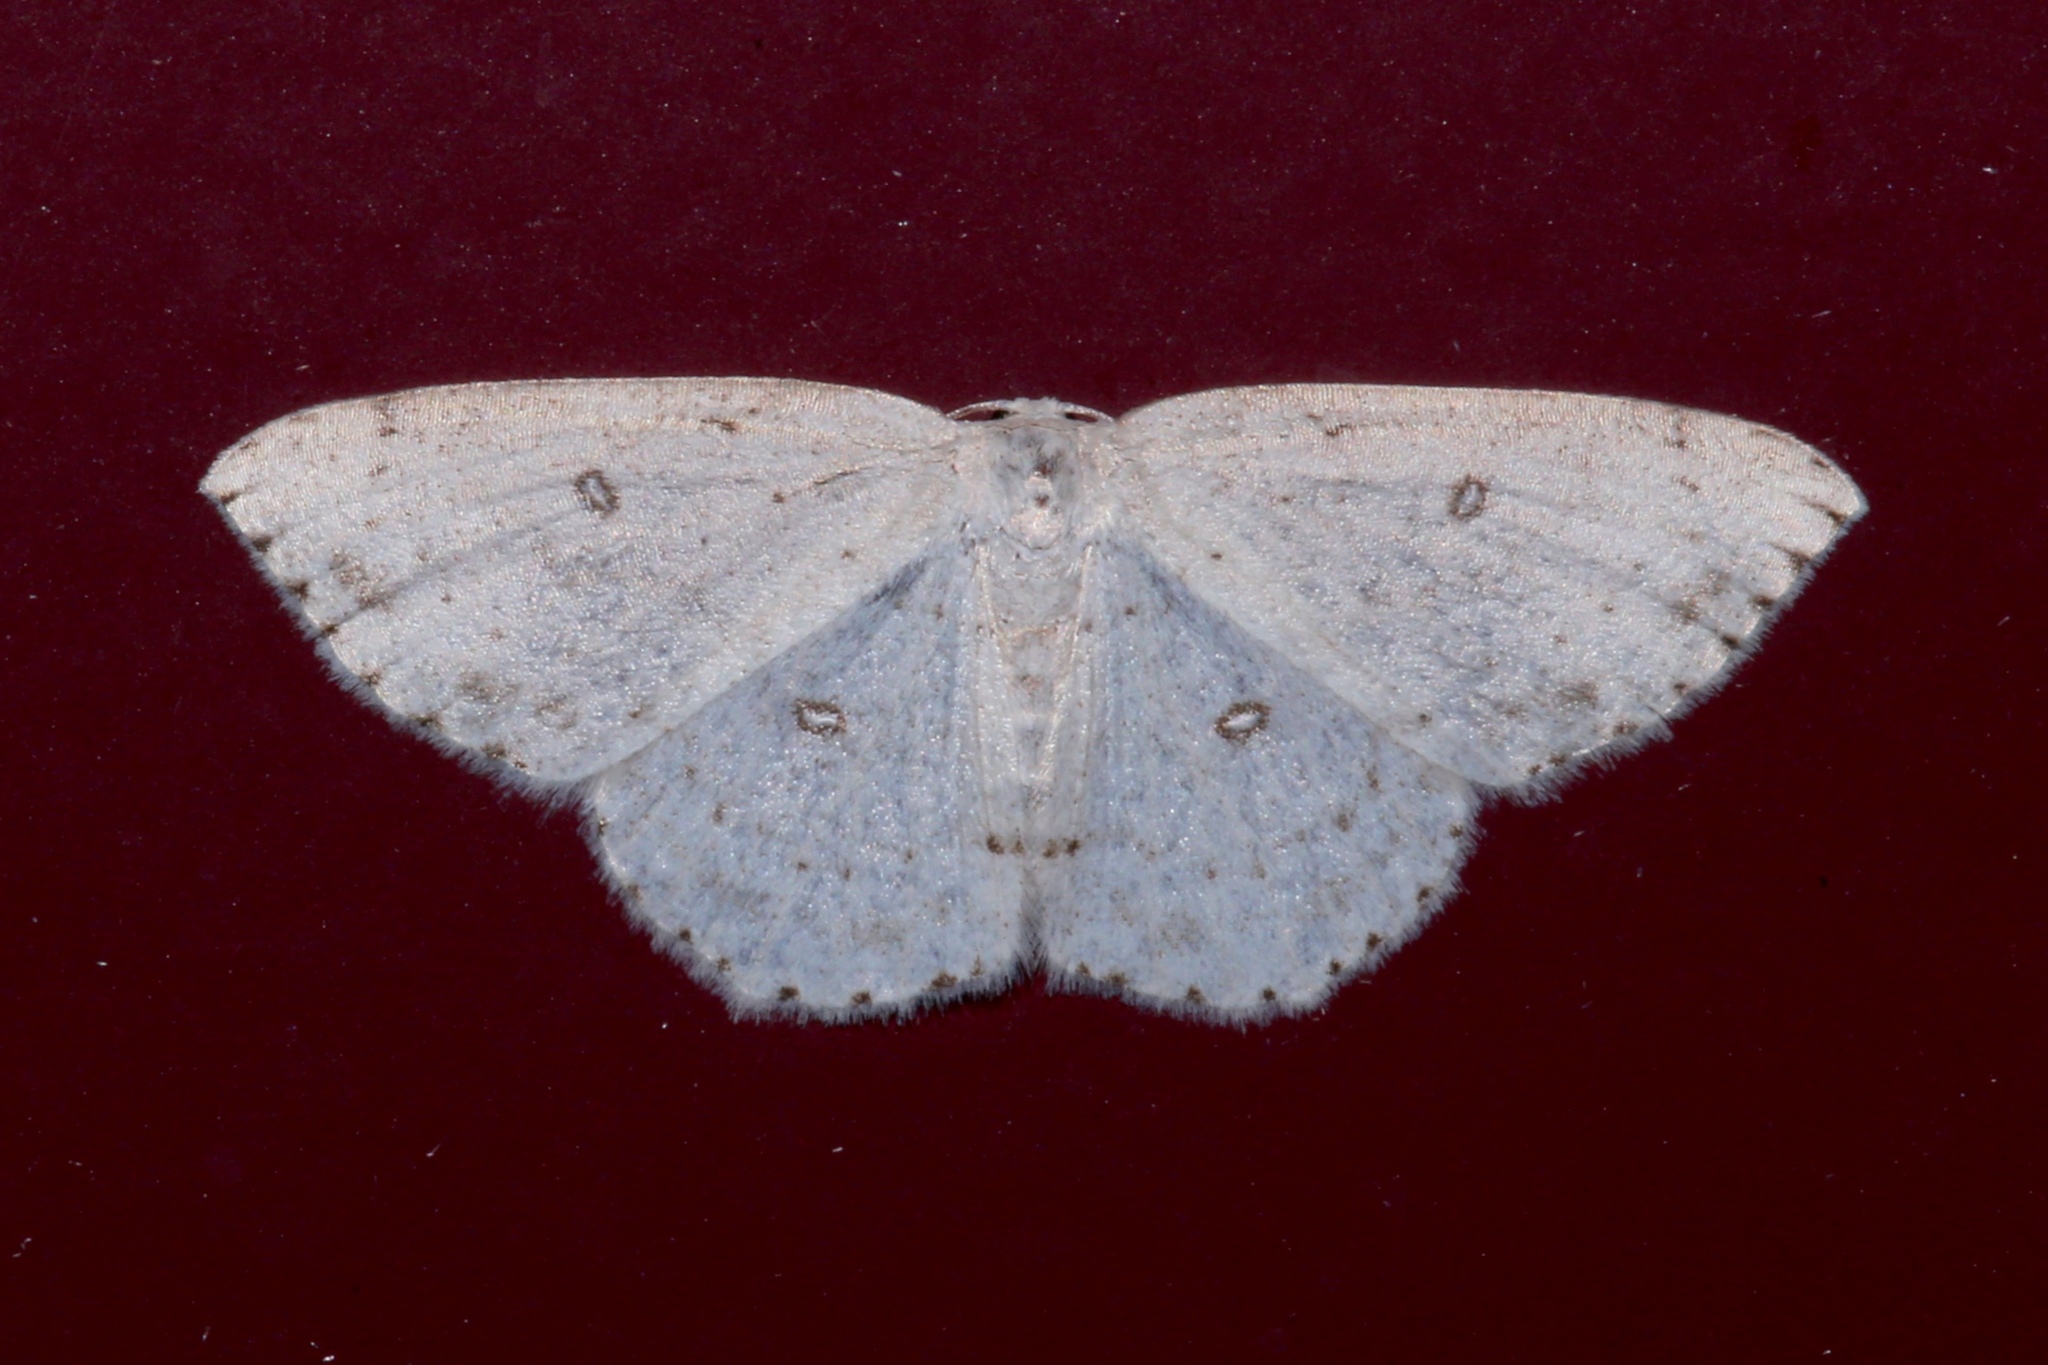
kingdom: Animalia
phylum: Arthropoda
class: Insecta
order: Lepidoptera
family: Geometridae
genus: Cyclophora
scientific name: Cyclophora pendulinaria
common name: Sweet fern geometer
